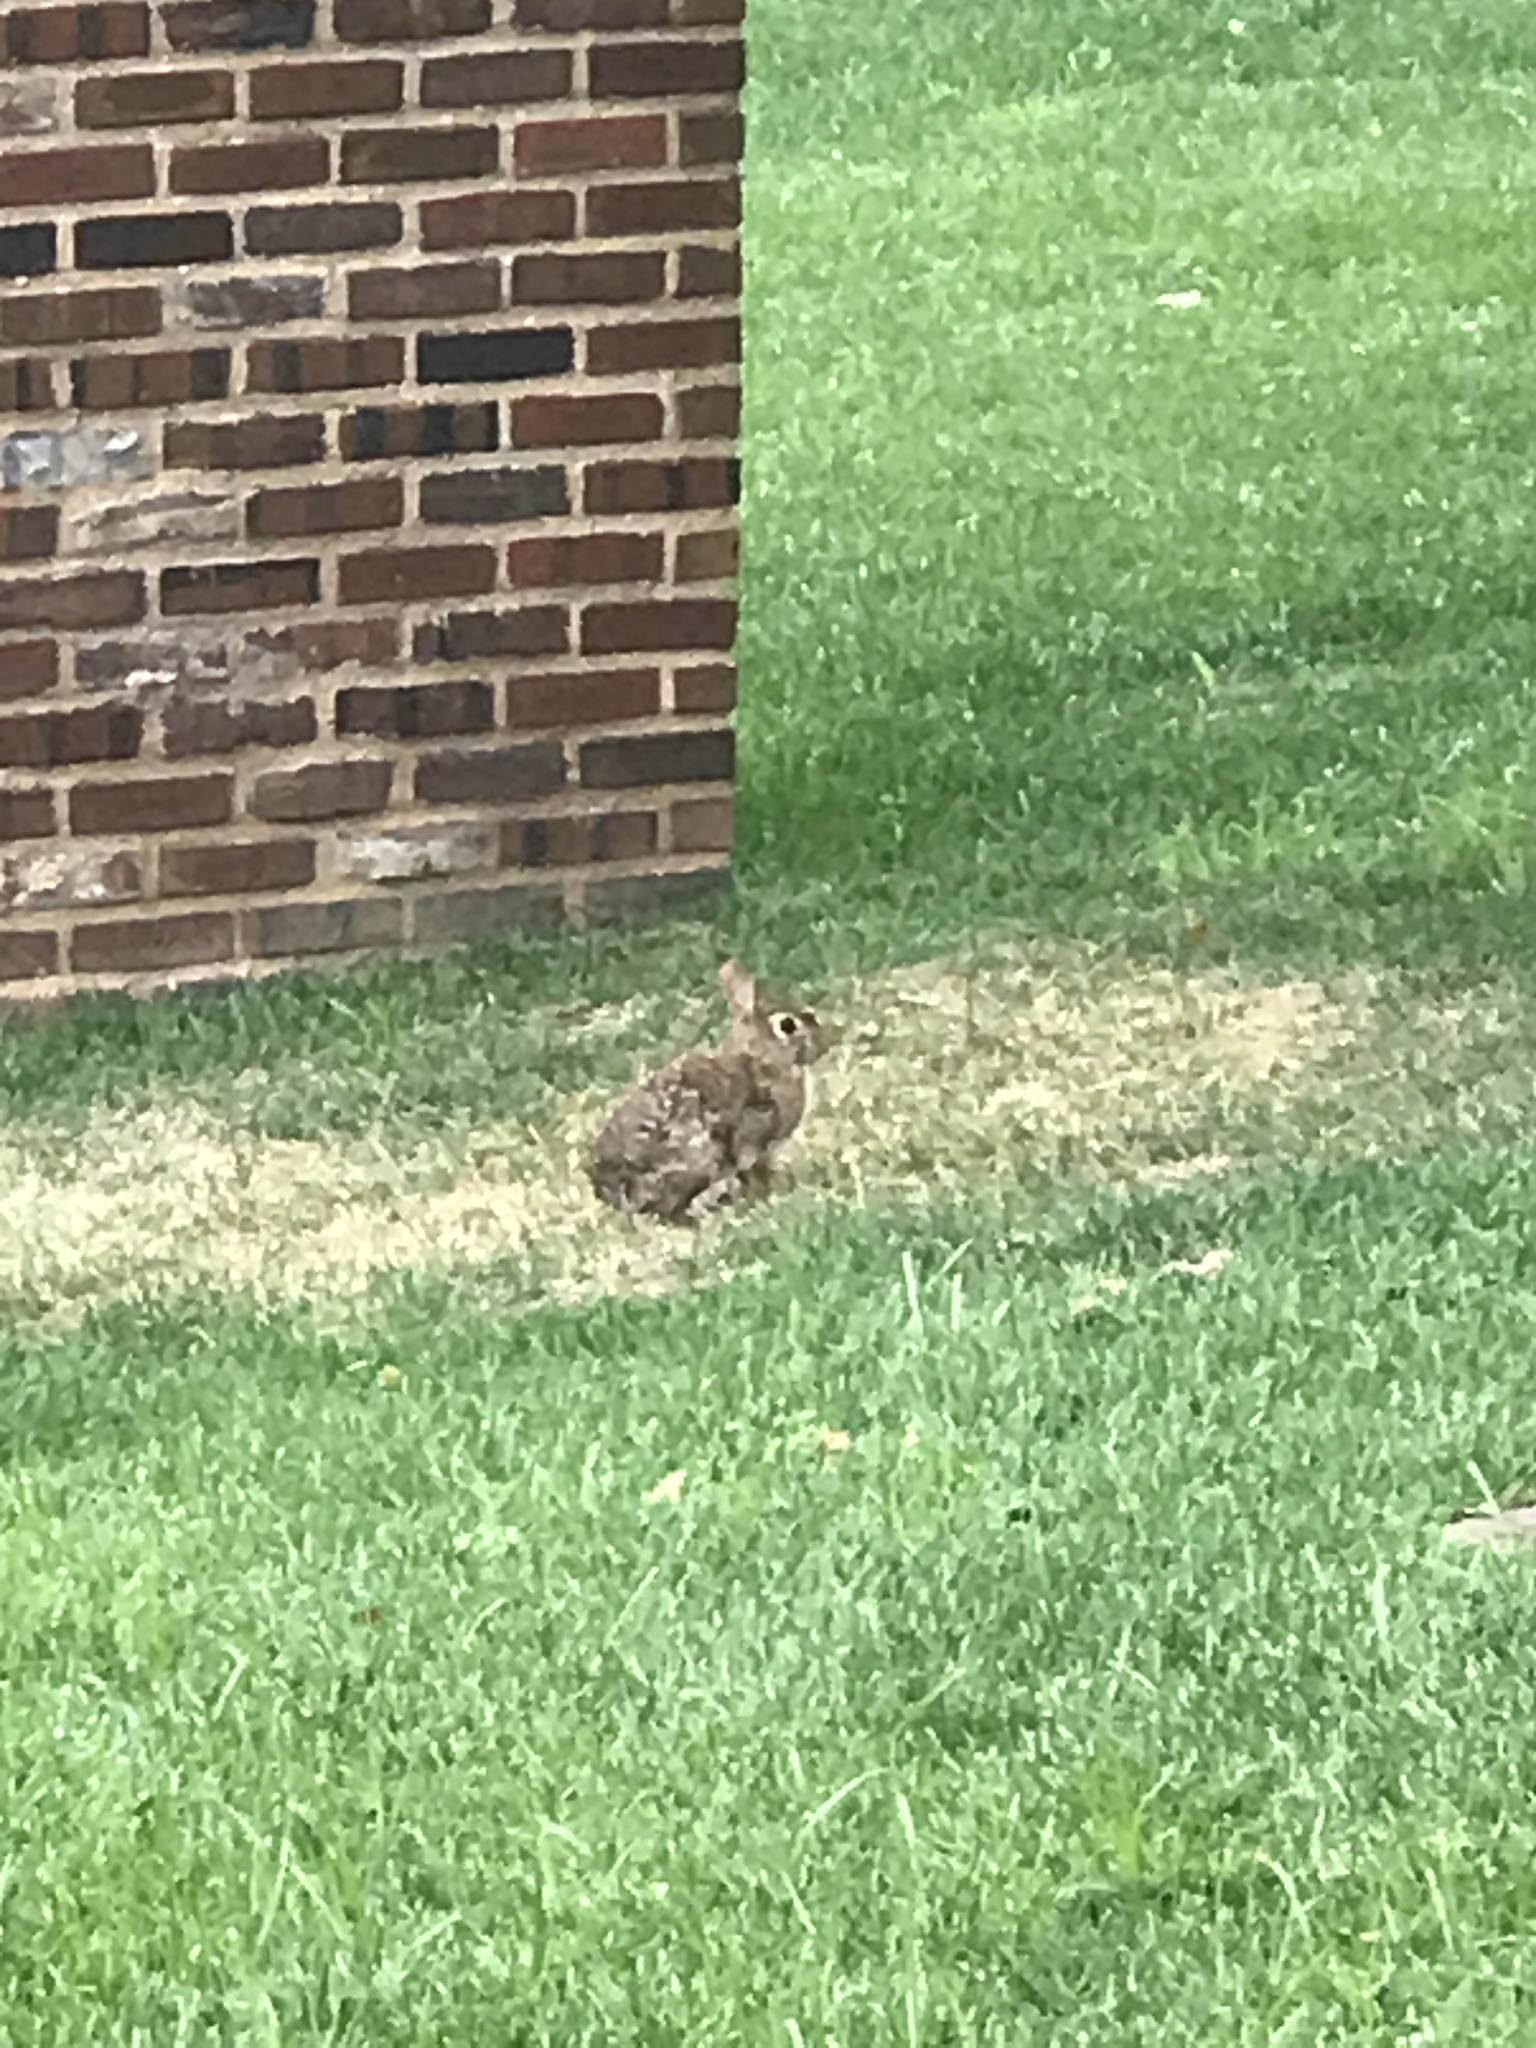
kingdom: Animalia
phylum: Chordata
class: Mammalia
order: Lagomorpha
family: Leporidae
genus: Sylvilagus
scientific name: Sylvilagus floridanus
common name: Eastern cottontail
